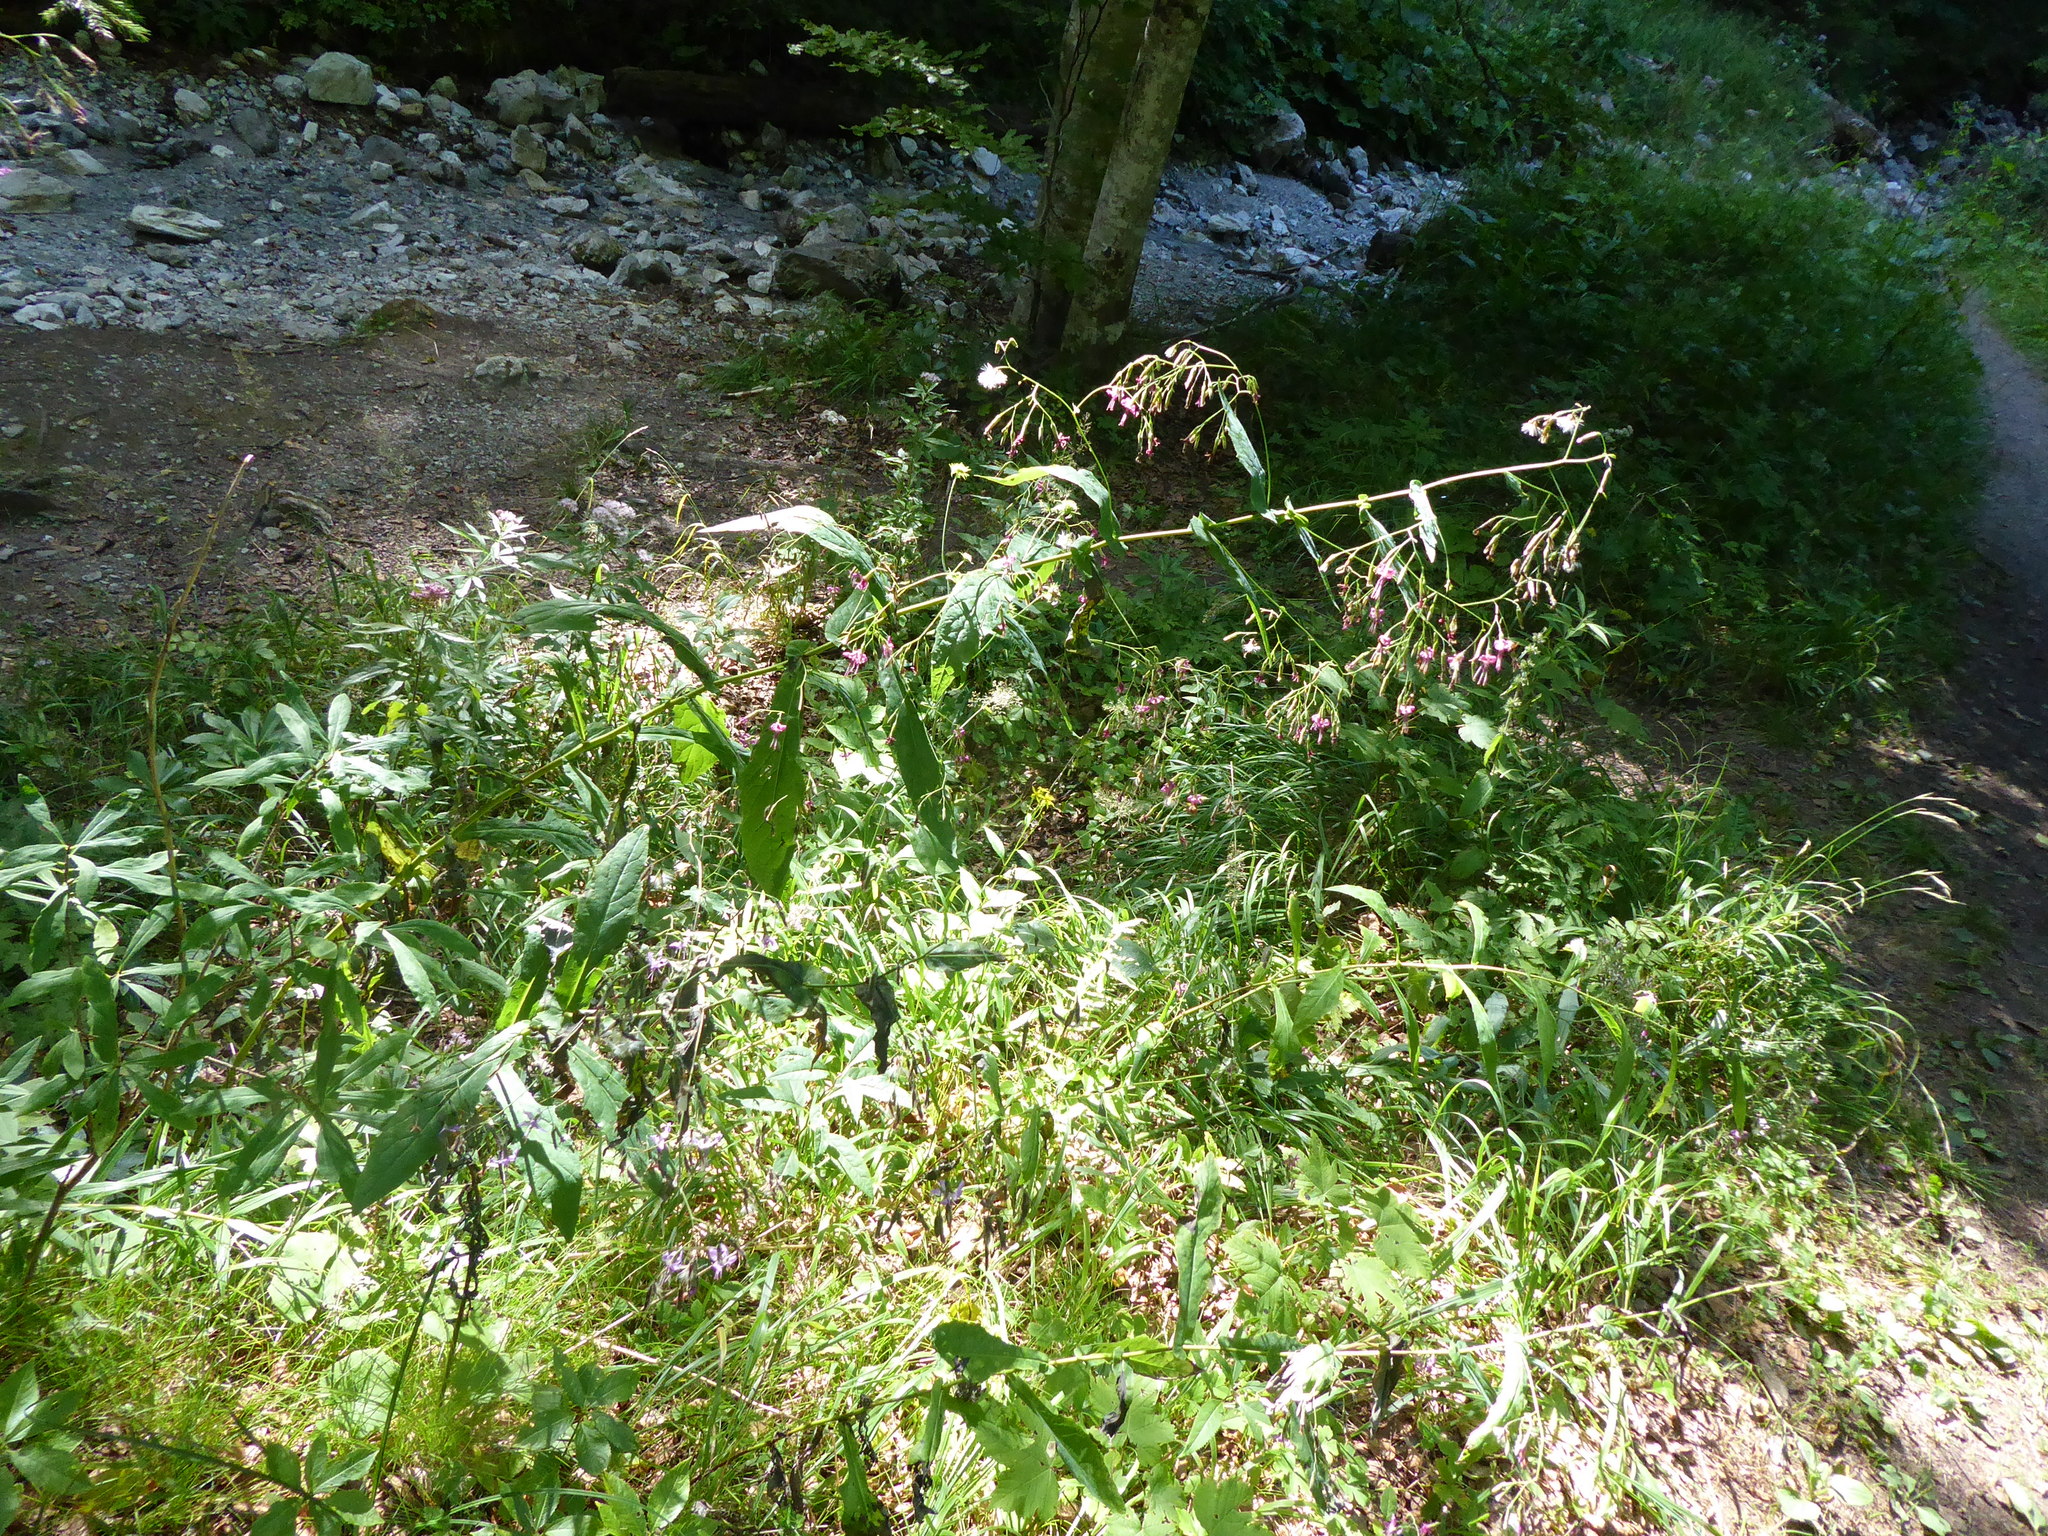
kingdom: Plantae
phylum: Tracheophyta
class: Magnoliopsida
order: Asterales
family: Asteraceae
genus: Prenanthes
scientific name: Prenanthes purpurea
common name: Purple lettuce
